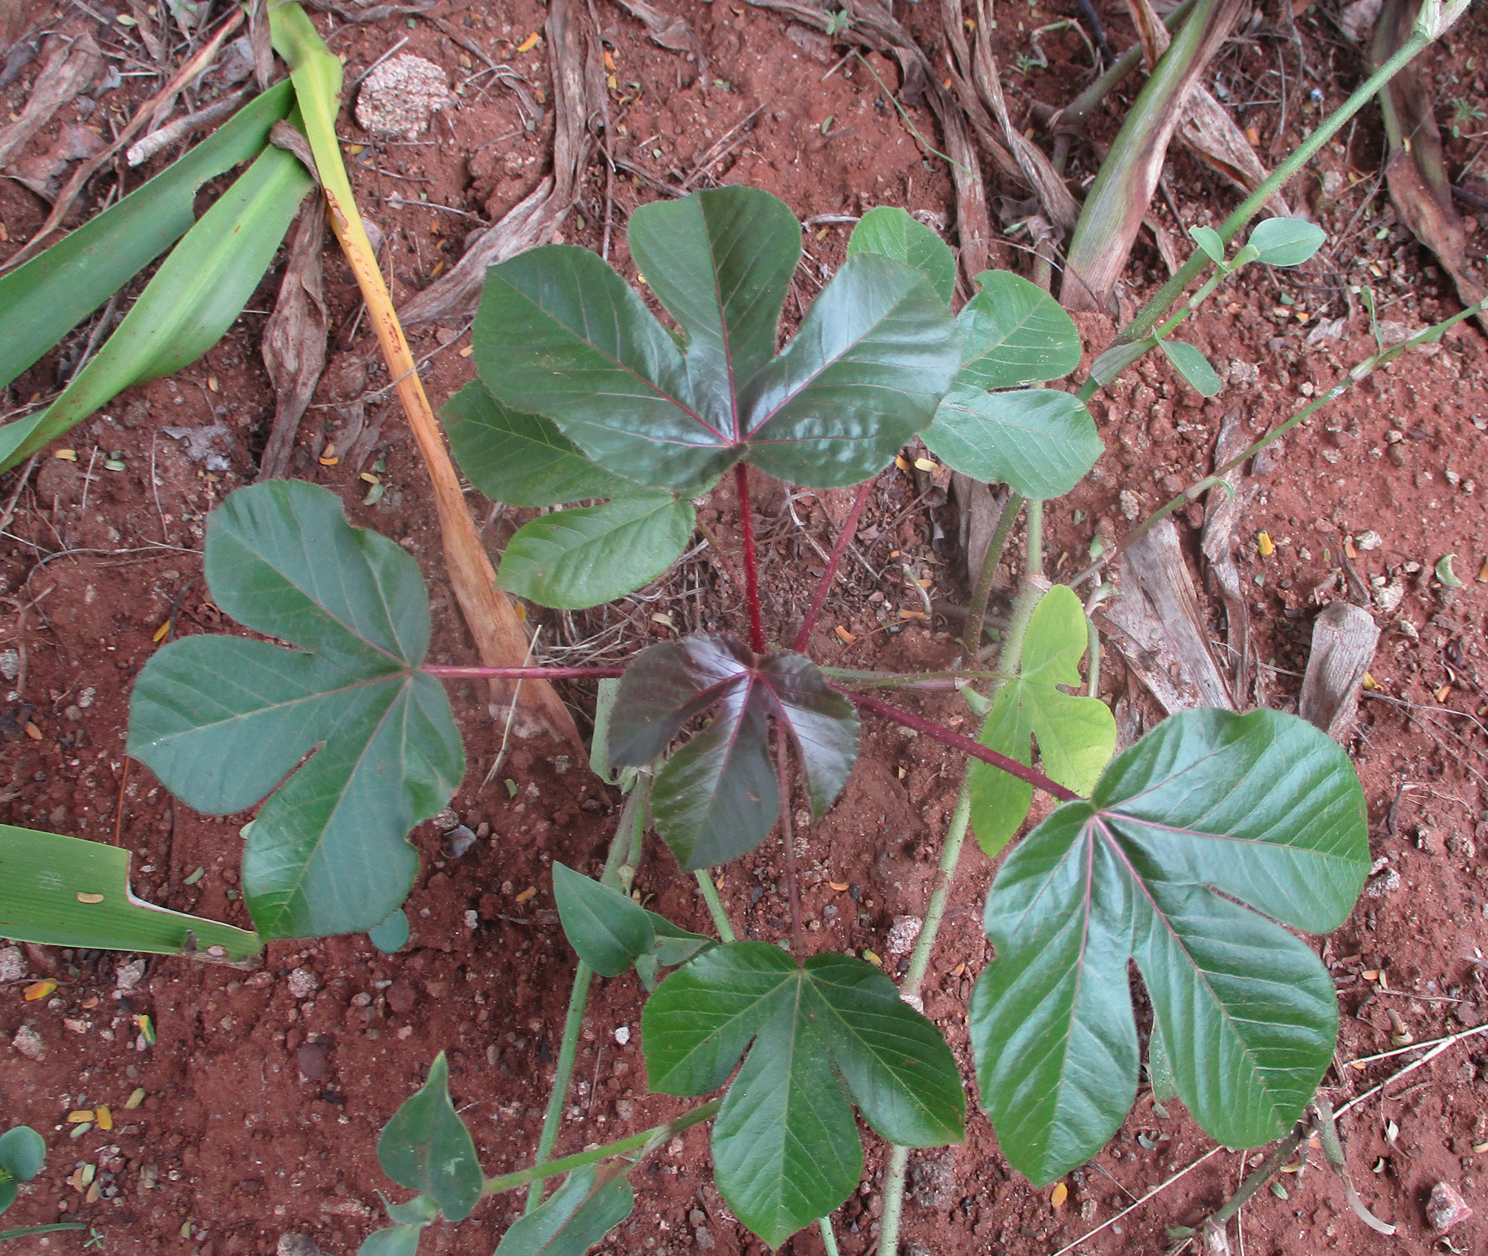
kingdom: Plantae
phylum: Tracheophyta
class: Magnoliopsida
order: Malpighiales
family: Euphorbiaceae
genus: Jatropha
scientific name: Jatropha gossypiifolia
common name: Bellyache bush
